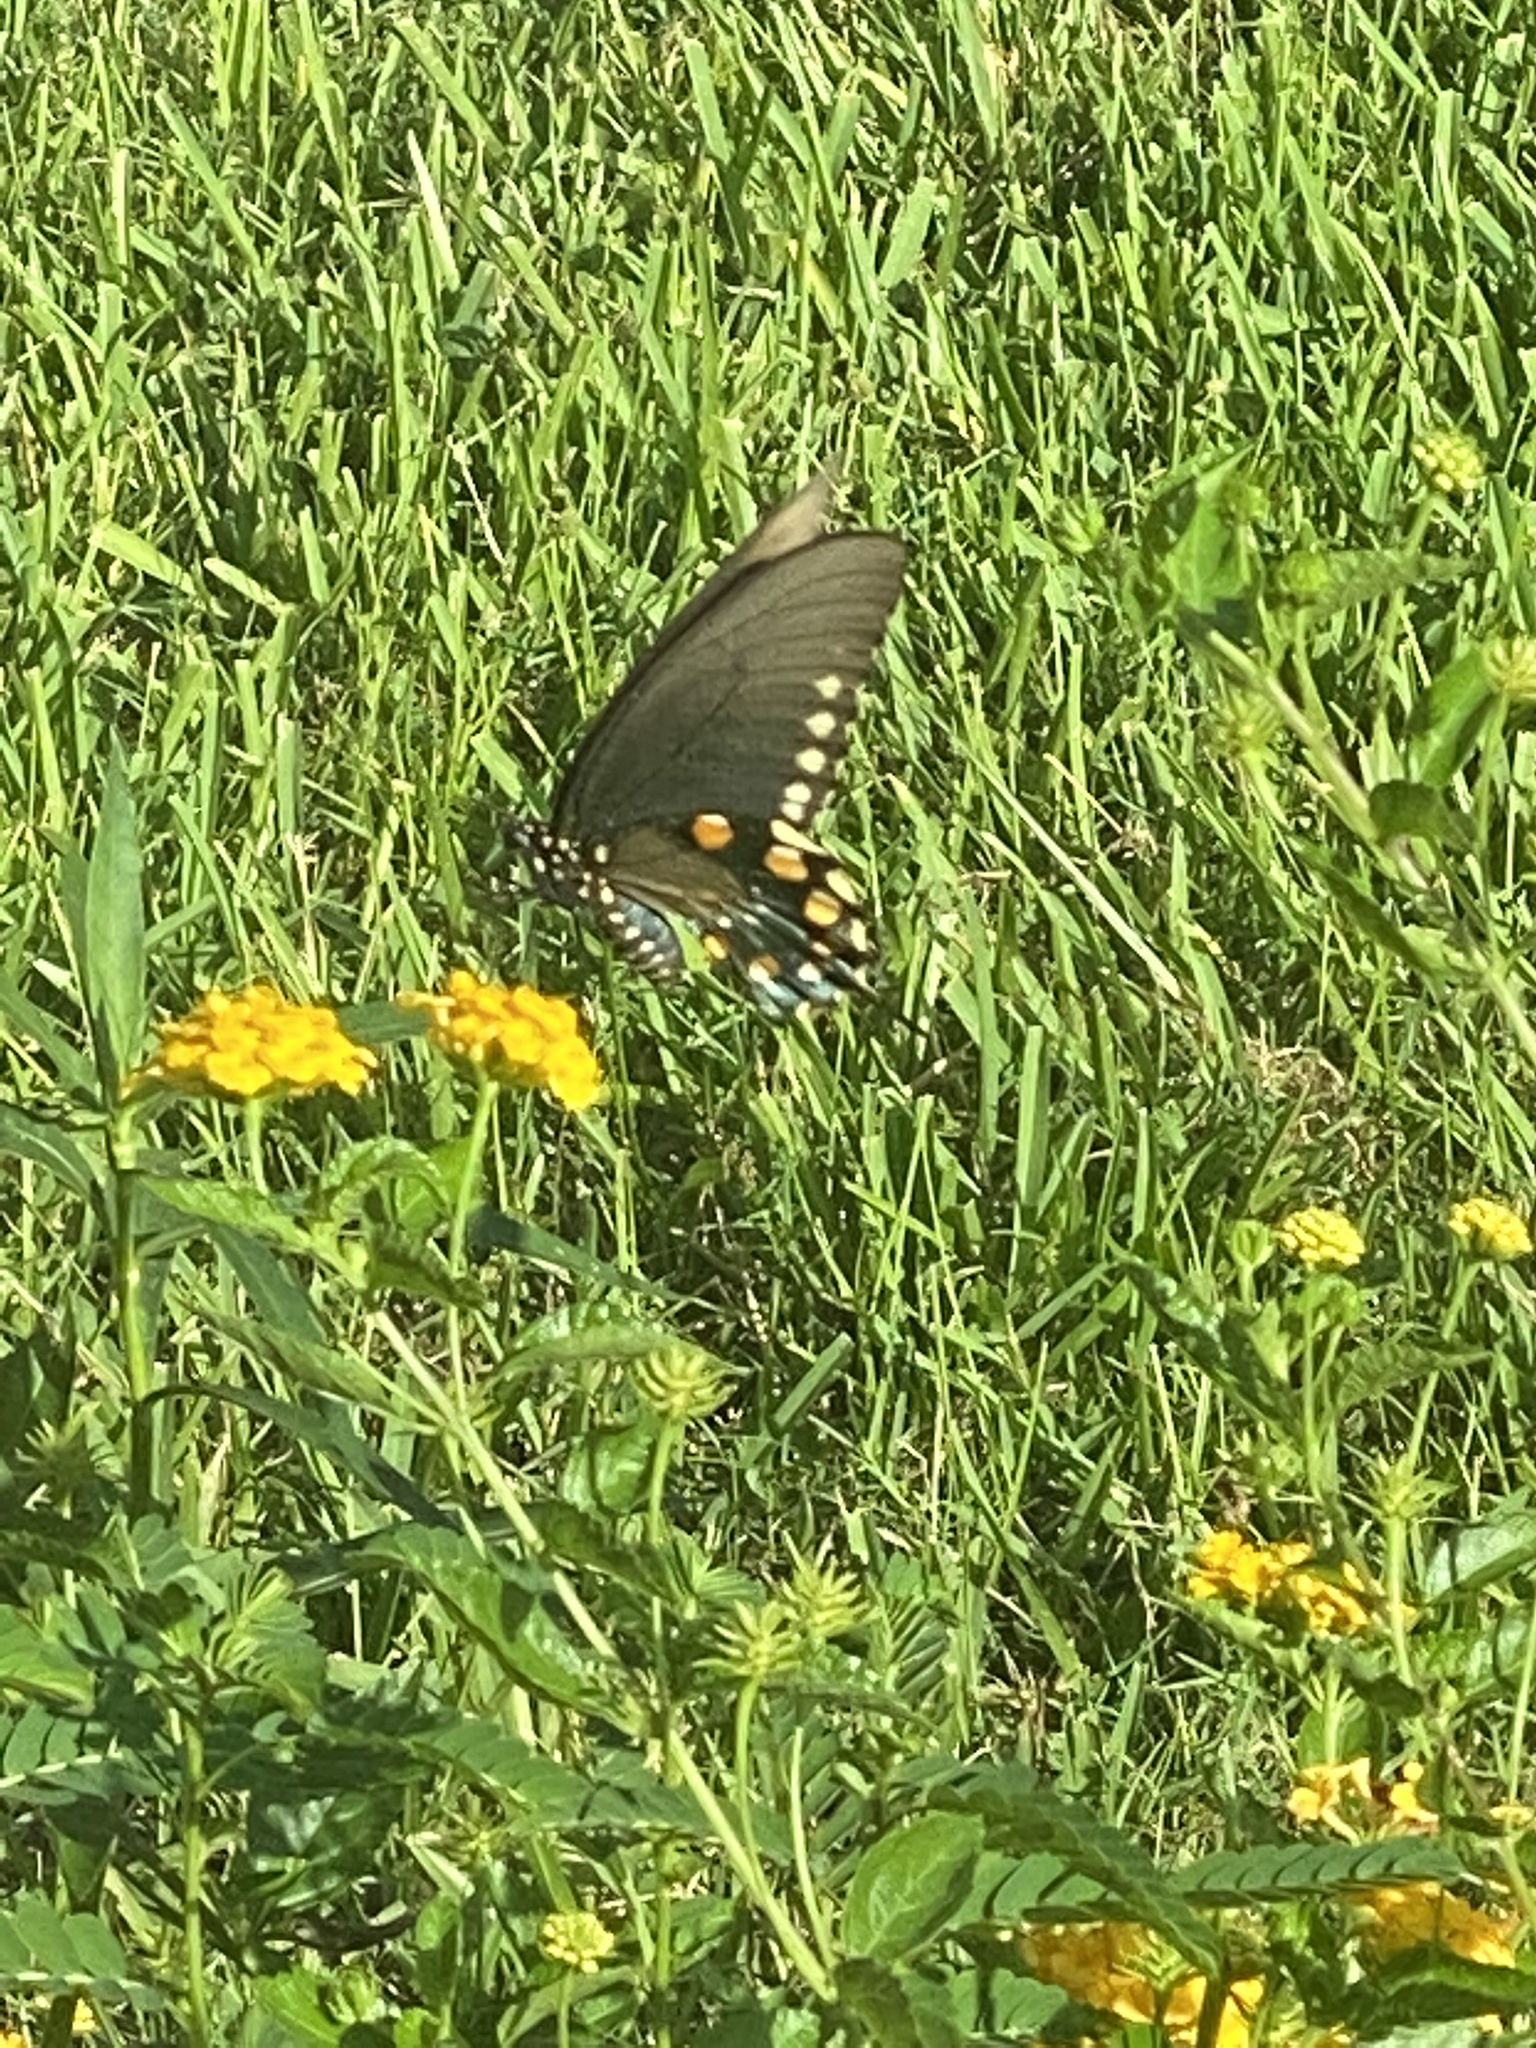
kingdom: Animalia
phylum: Arthropoda
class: Insecta
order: Lepidoptera
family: Papilionidae
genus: Battus
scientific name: Battus philenor
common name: Pipevine swallowtail
